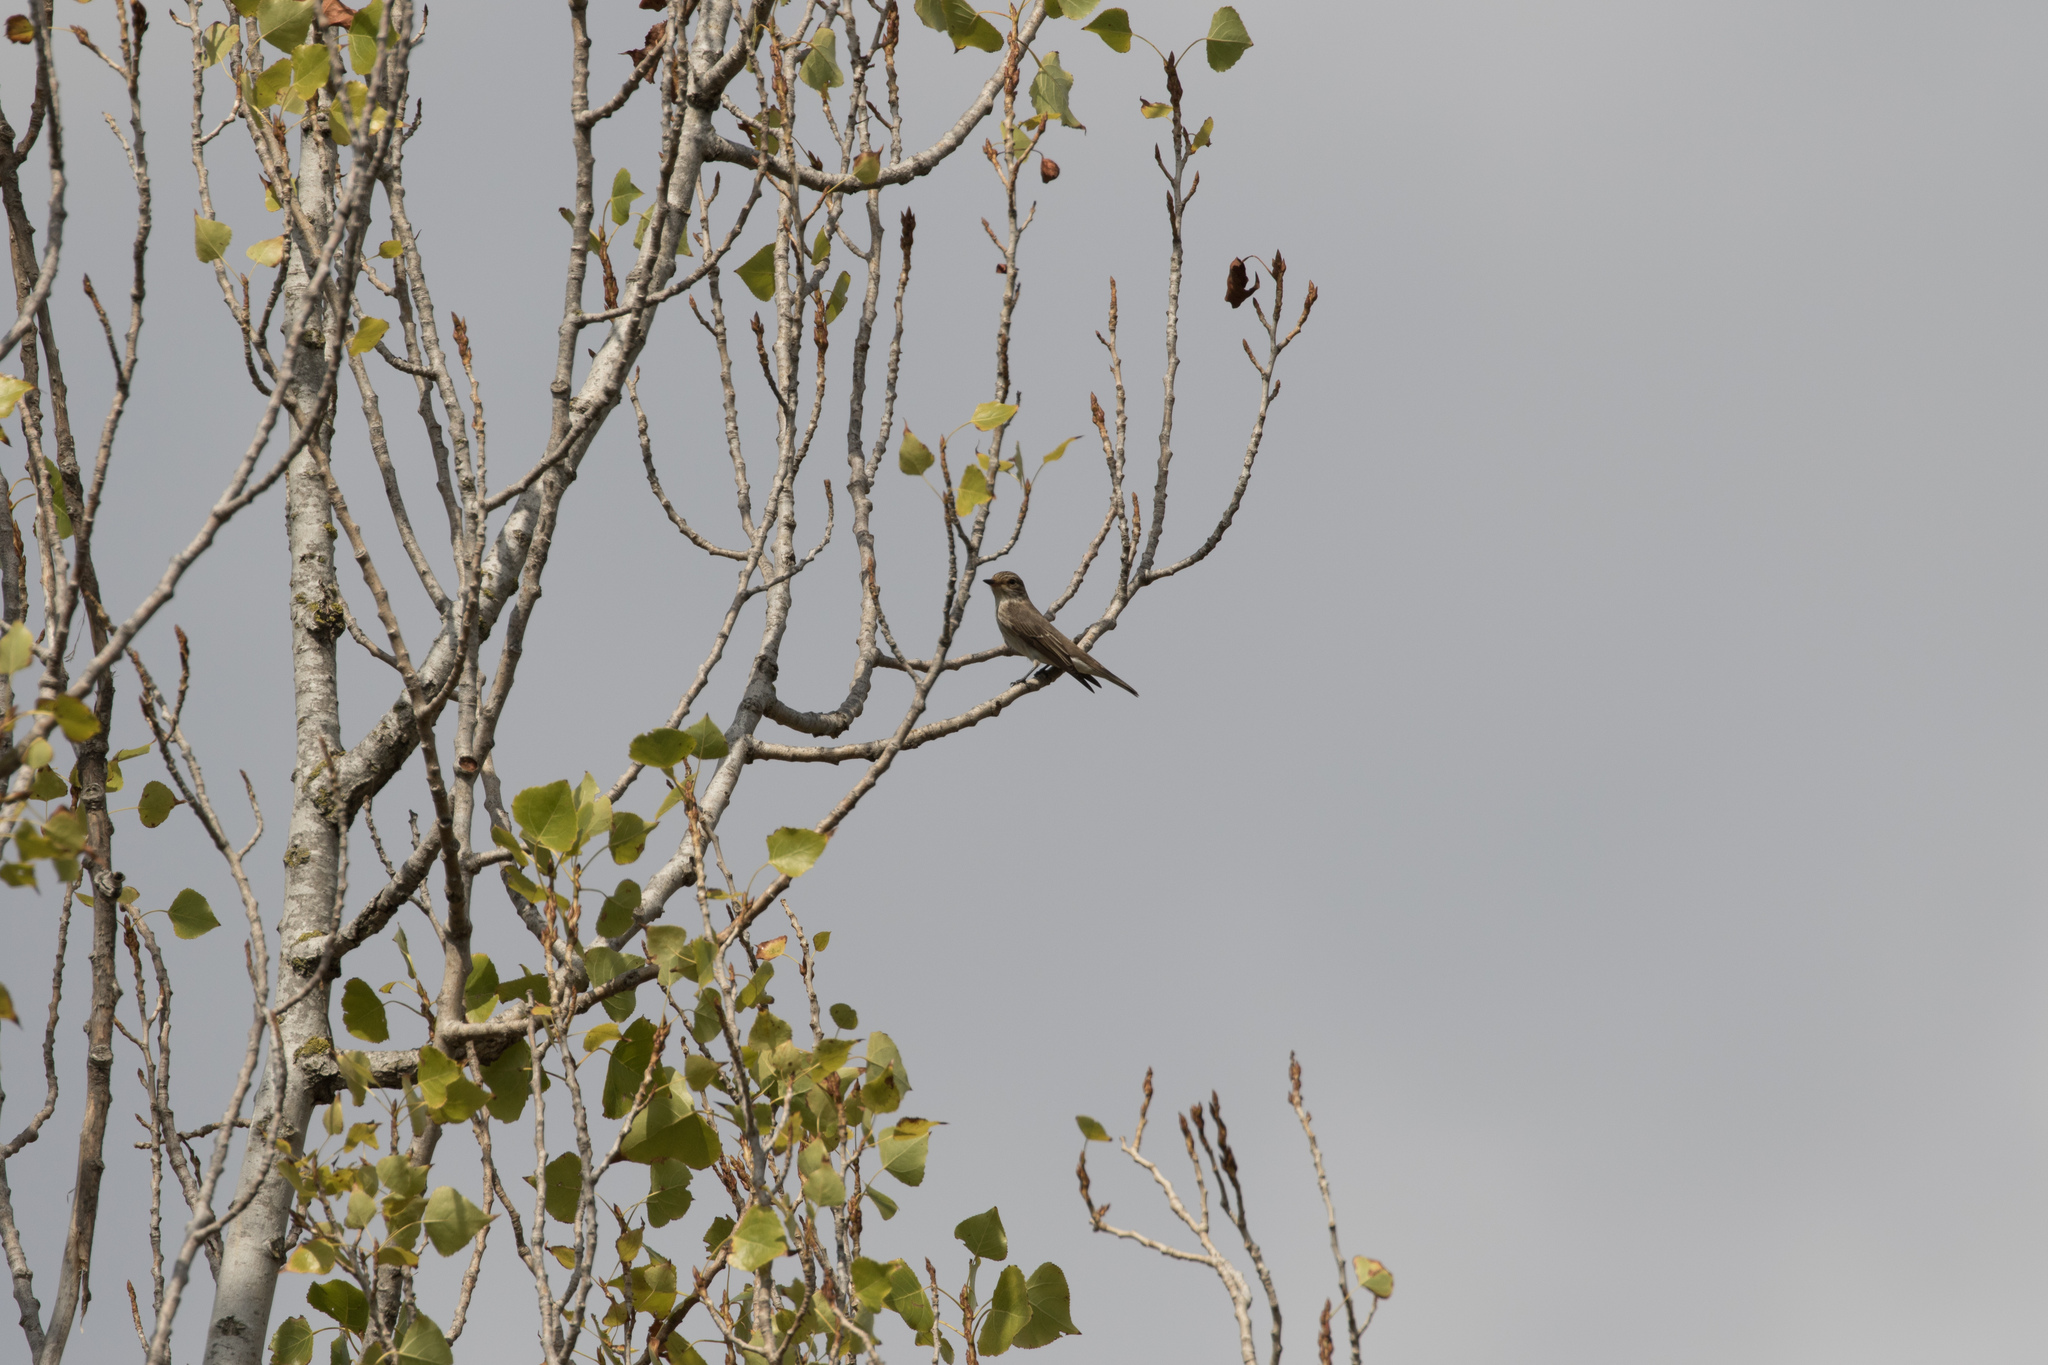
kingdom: Animalia
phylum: Chordata
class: Aves
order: Passeriformes
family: Muscicapidae
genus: Muscicapa
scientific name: Muscicapa striata
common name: Spotted flycatcher
